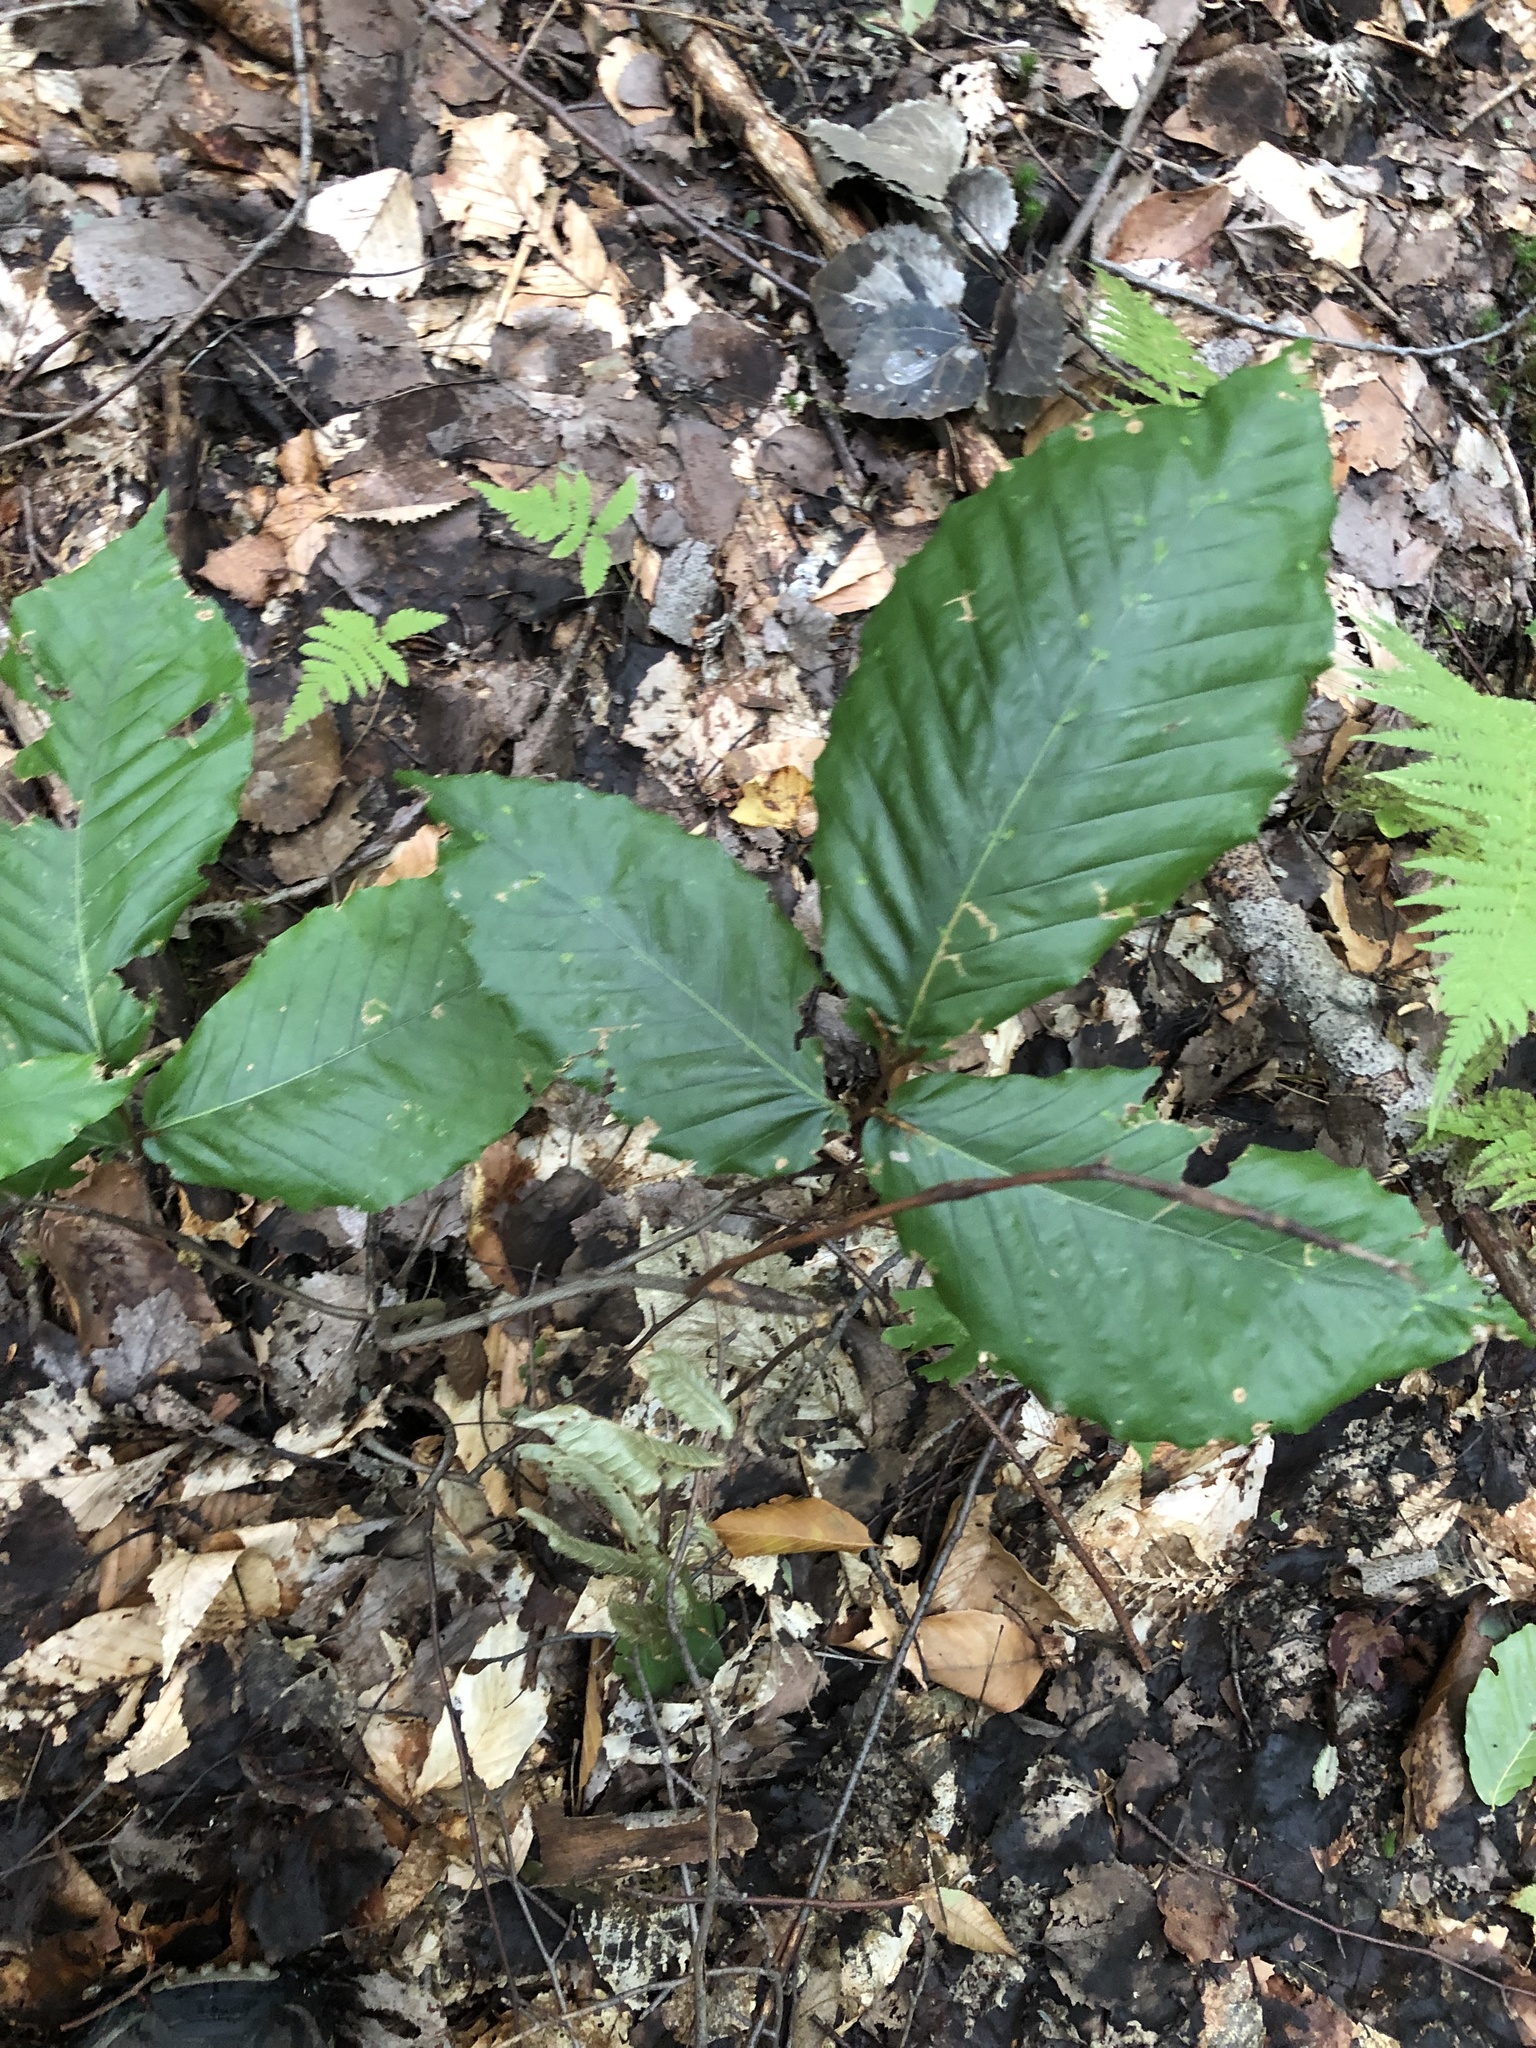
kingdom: Plantae
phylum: Tracheophyta
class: Magnoliopsida
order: Fagales
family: Fagaceae
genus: Fagus
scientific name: Fagus grandifolia
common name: American beech
